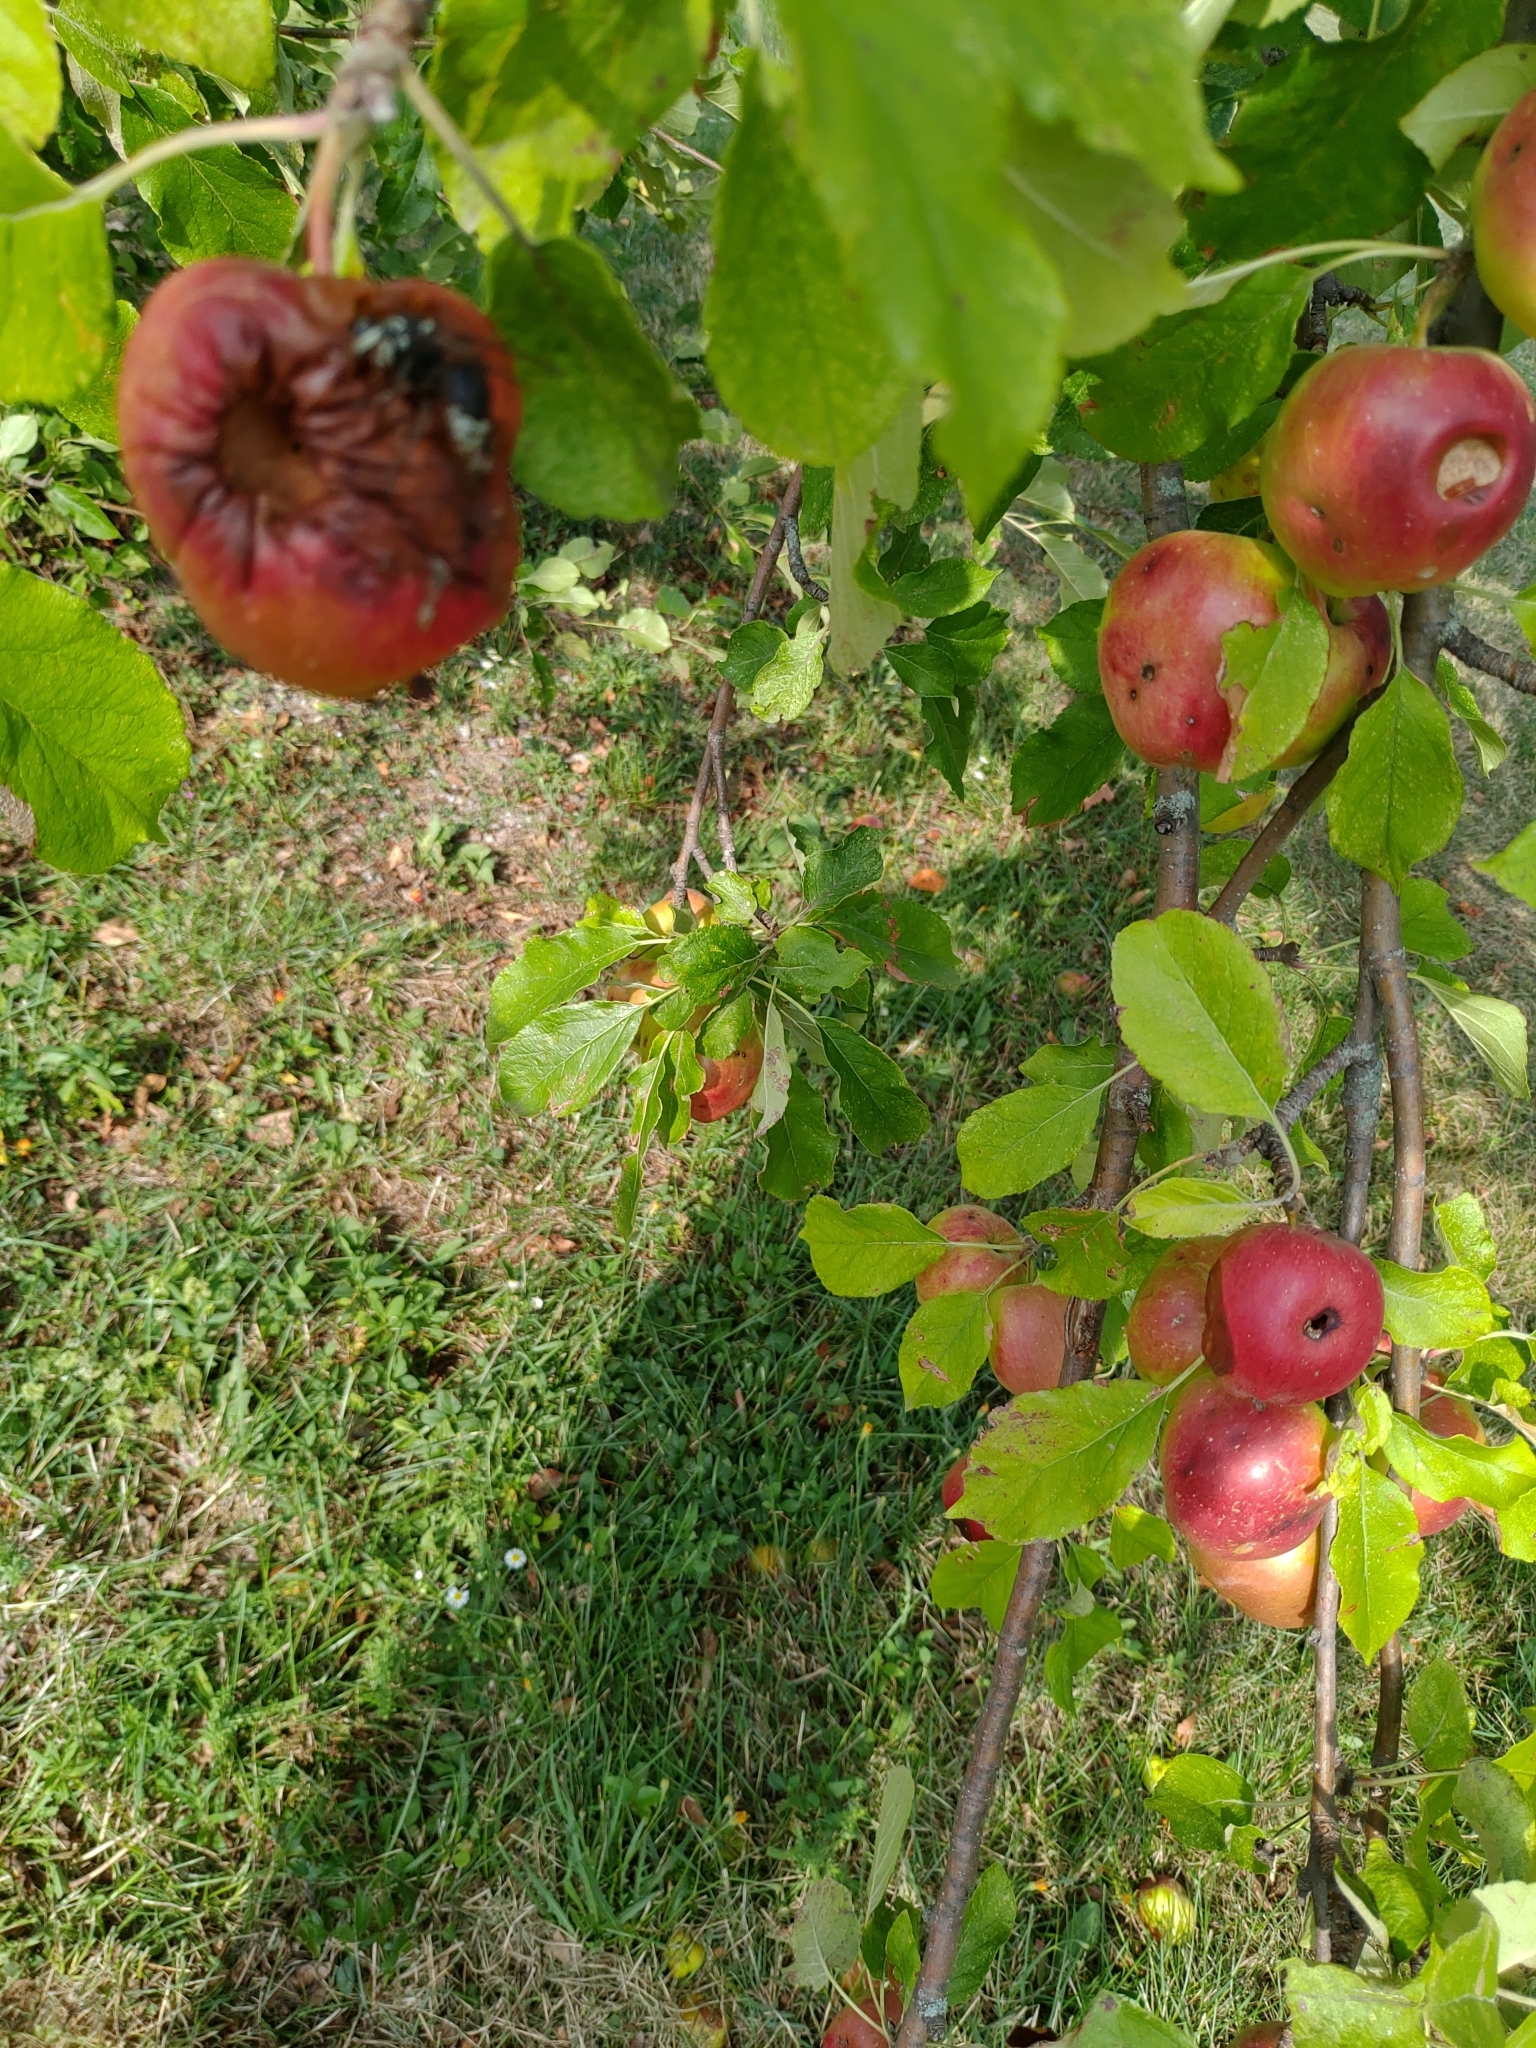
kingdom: Animalia
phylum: Arthropoda
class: Insecta
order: Hymenoptera
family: Vespidae
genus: Dolichovespula
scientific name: Dolichovespula maculata
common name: Bald-faced hornet
